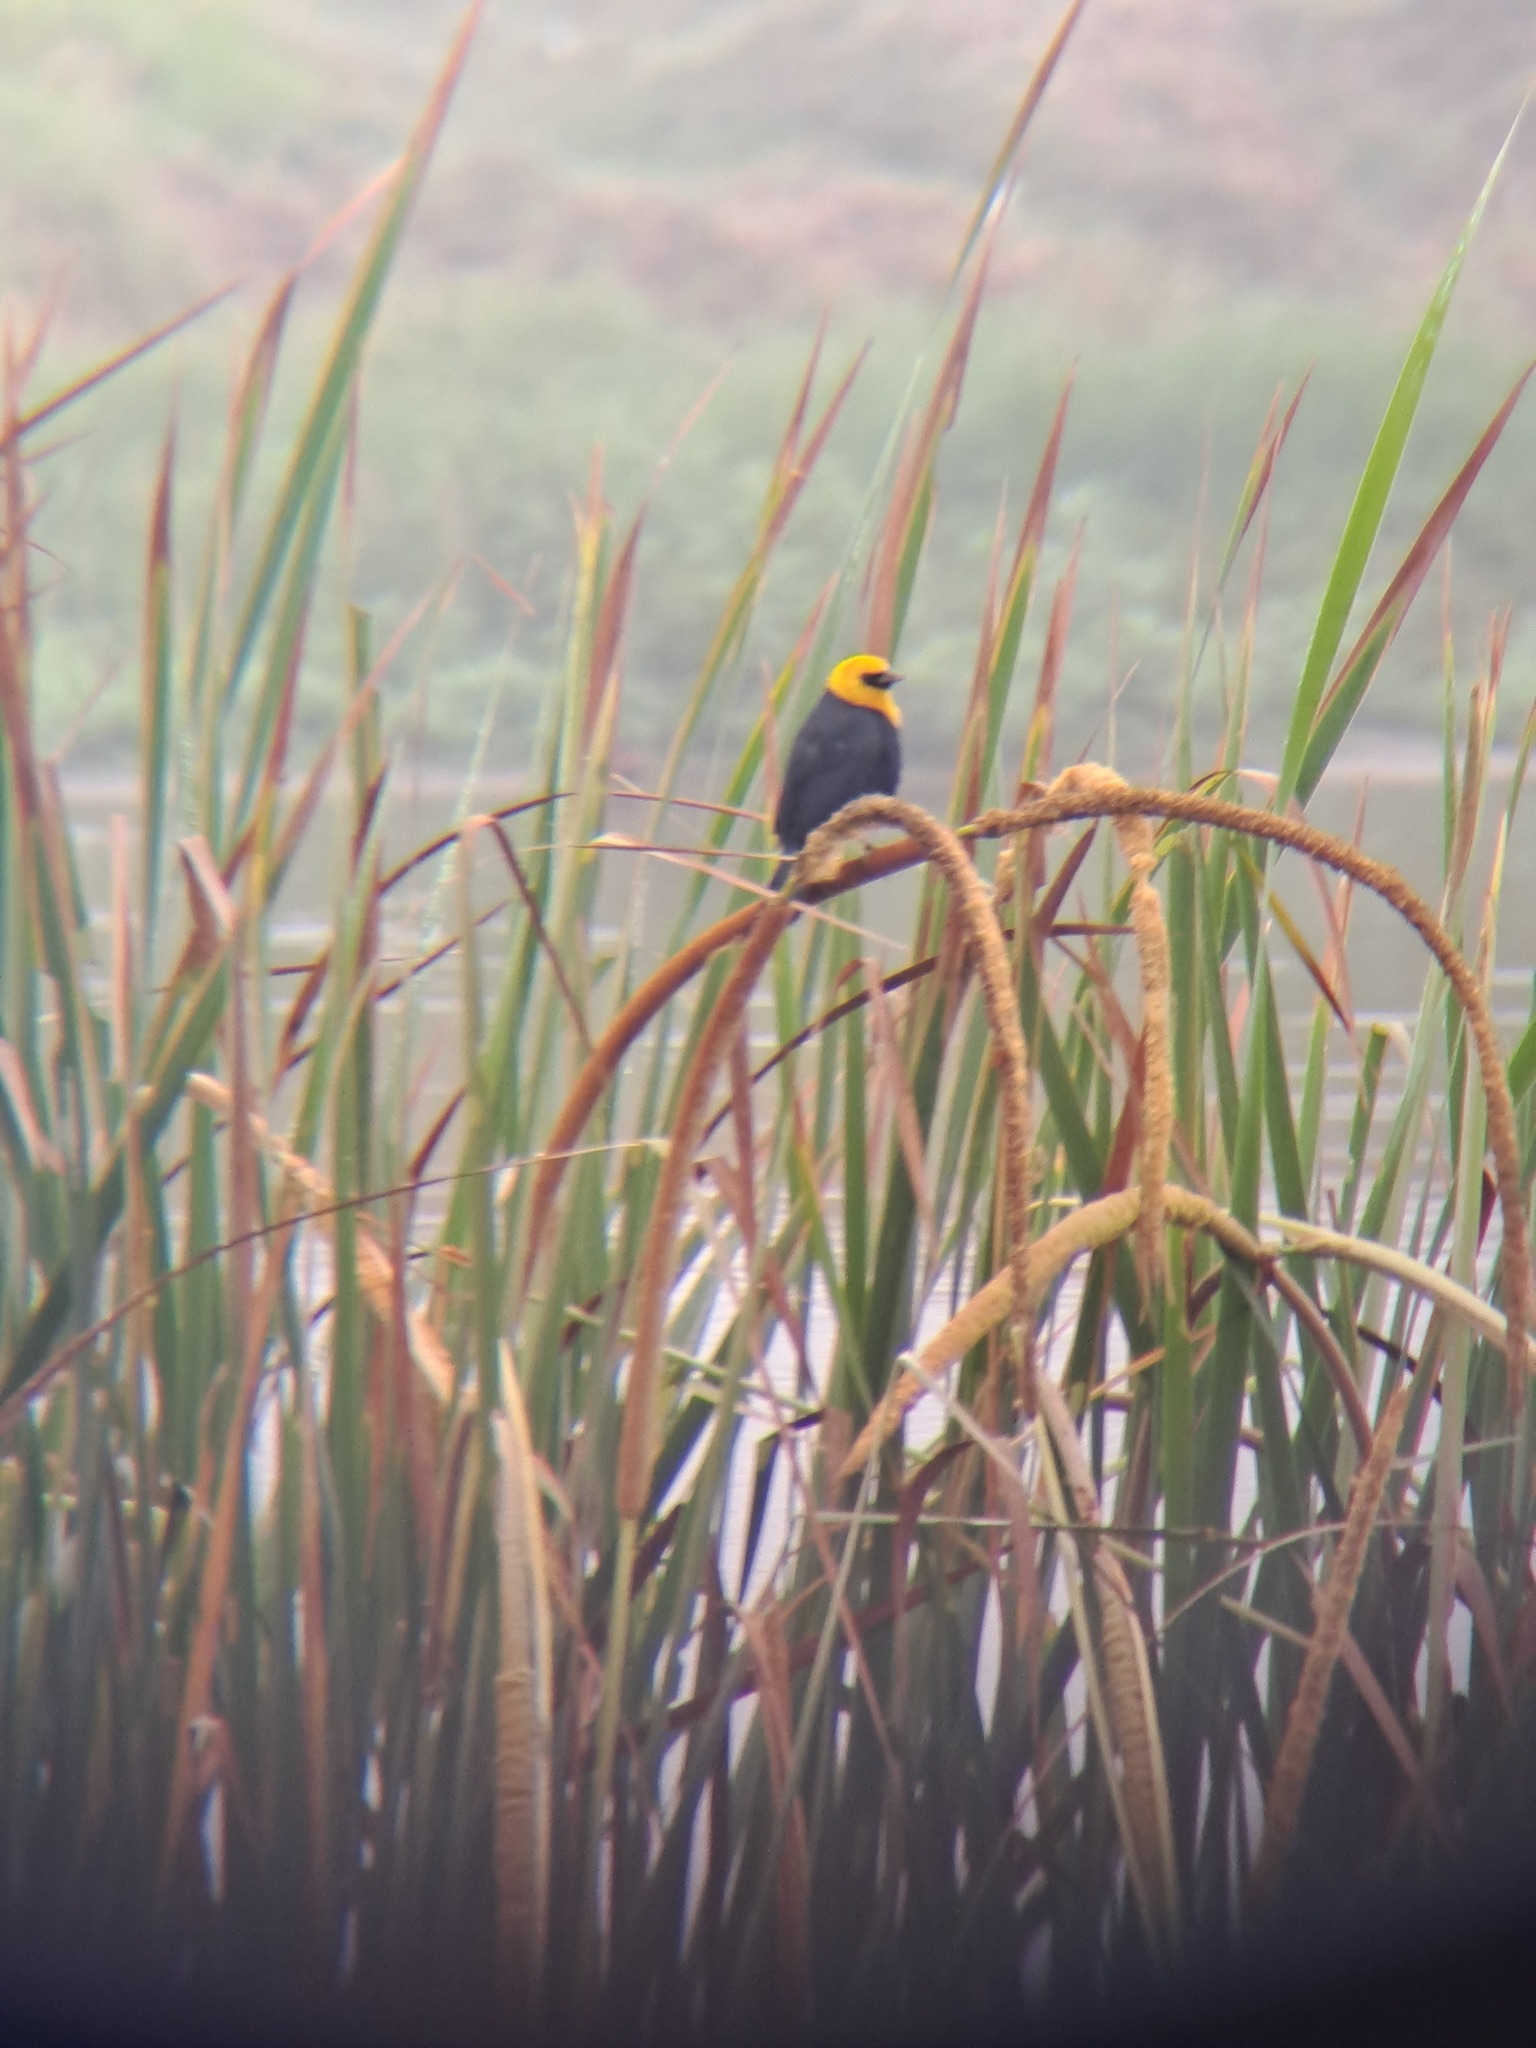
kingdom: Animalia
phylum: Chordata
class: Aves
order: Passeriformes
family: Icteridae
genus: Chrysomus
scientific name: Chrysomus icterocephalus
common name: Yellow-hooded blackbird
